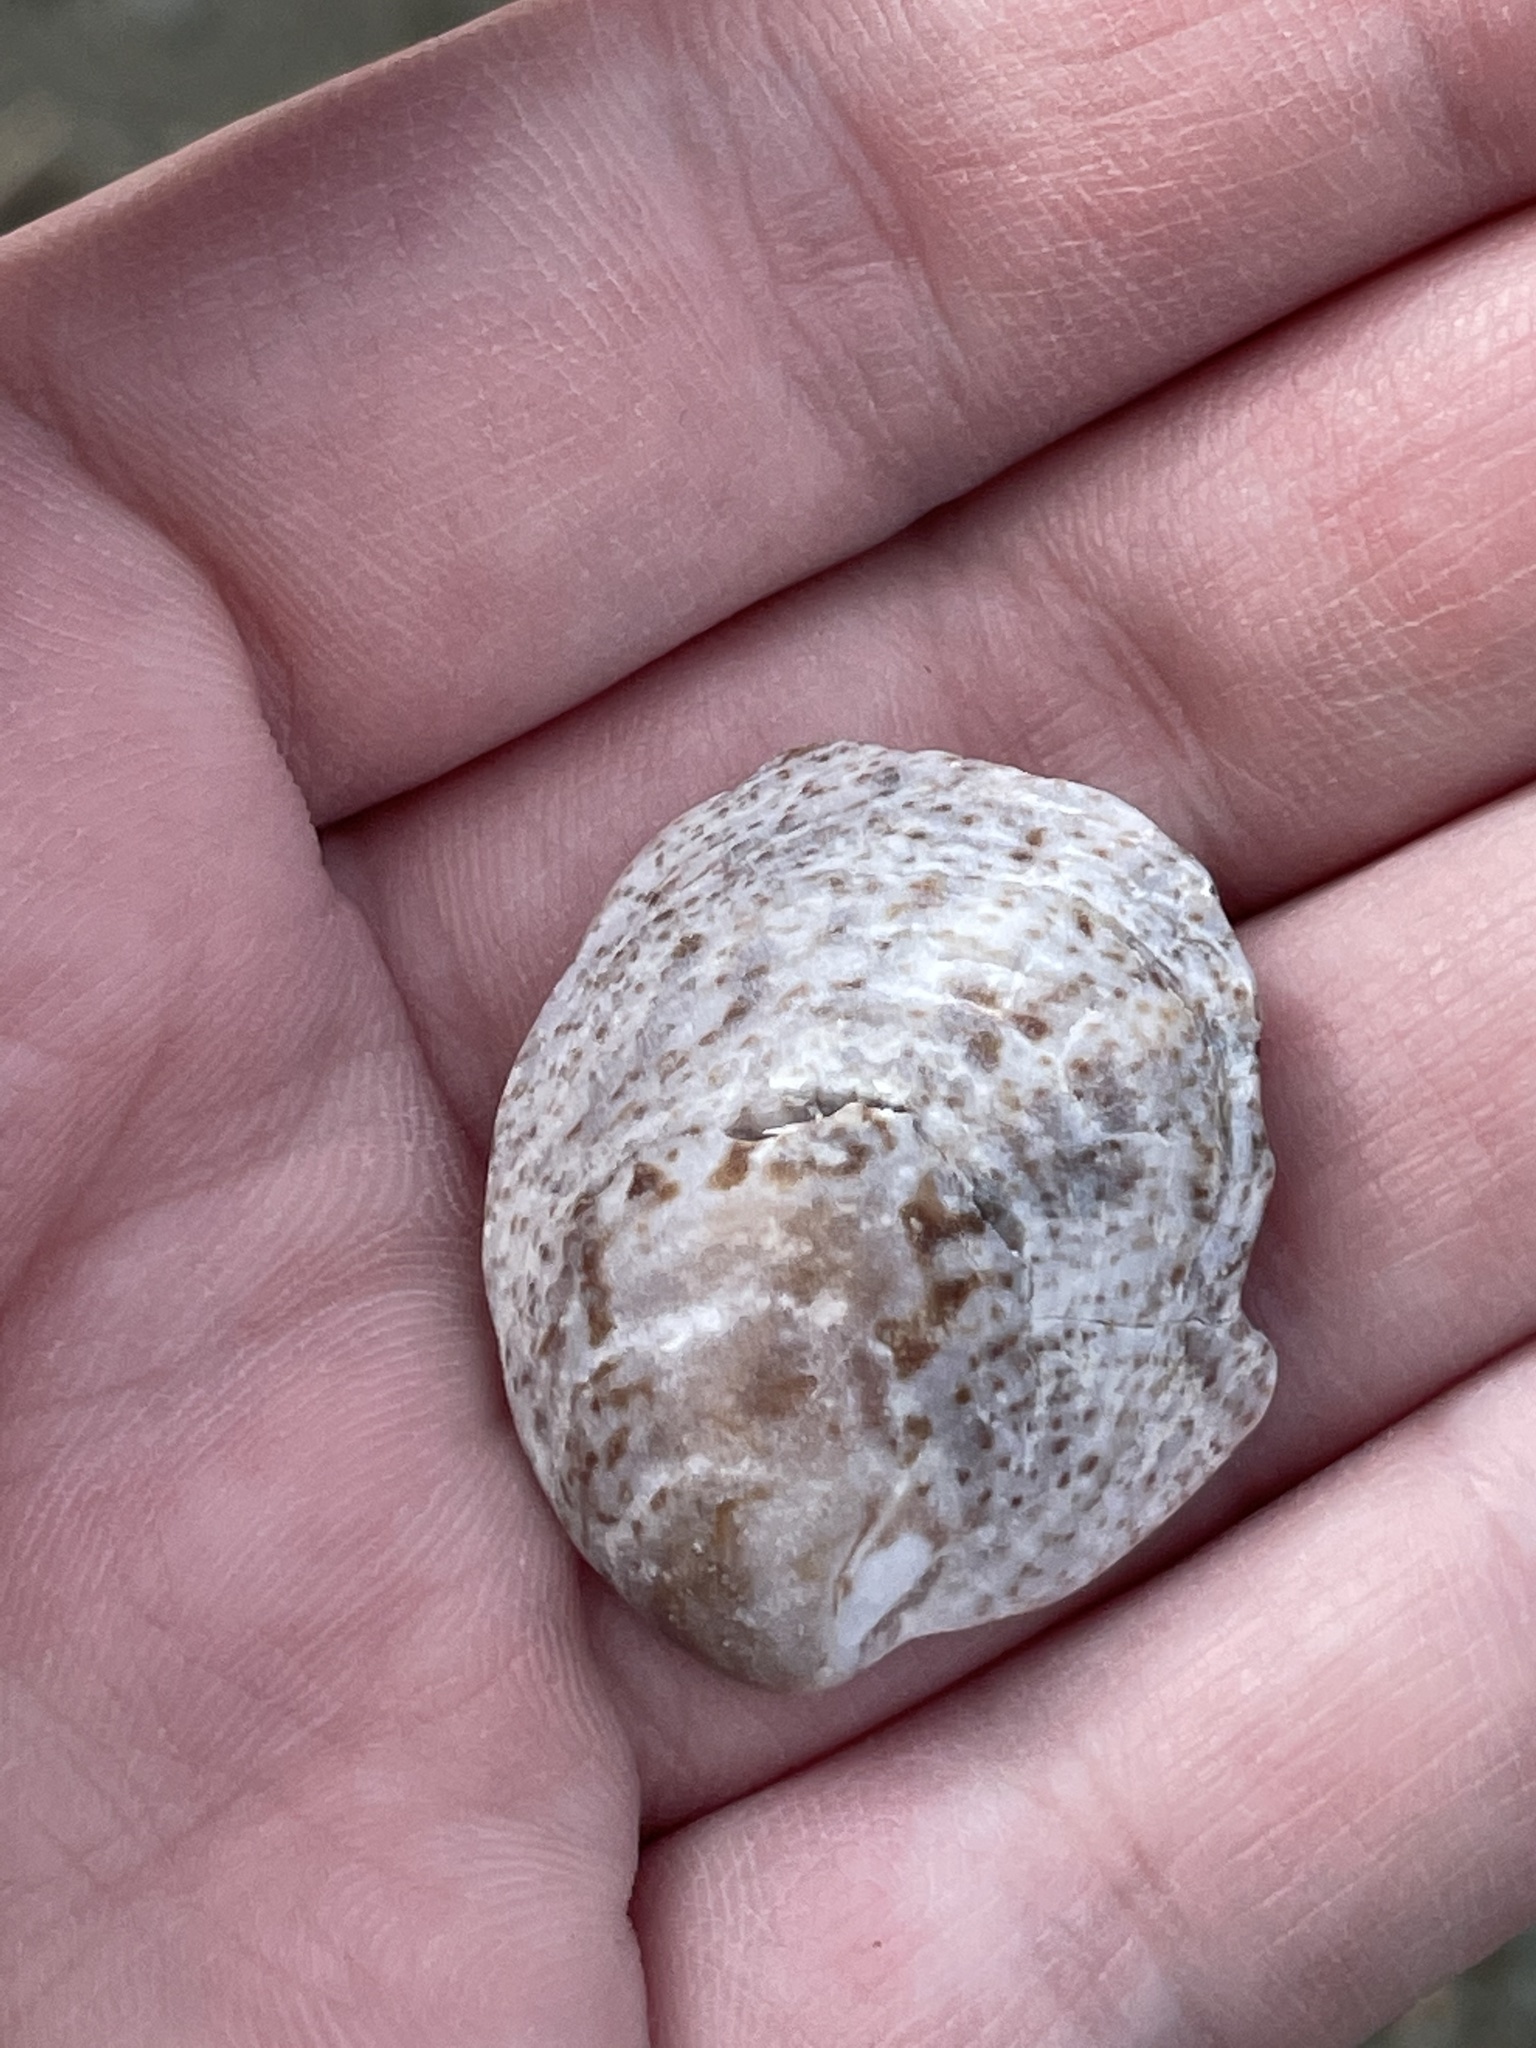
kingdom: Animalia
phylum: Mollusca
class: Gastropoda
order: Littorinimorpha
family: Calyptraeidae
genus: Crepidula
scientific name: Crepidula fornicata
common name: Slipper limpet
